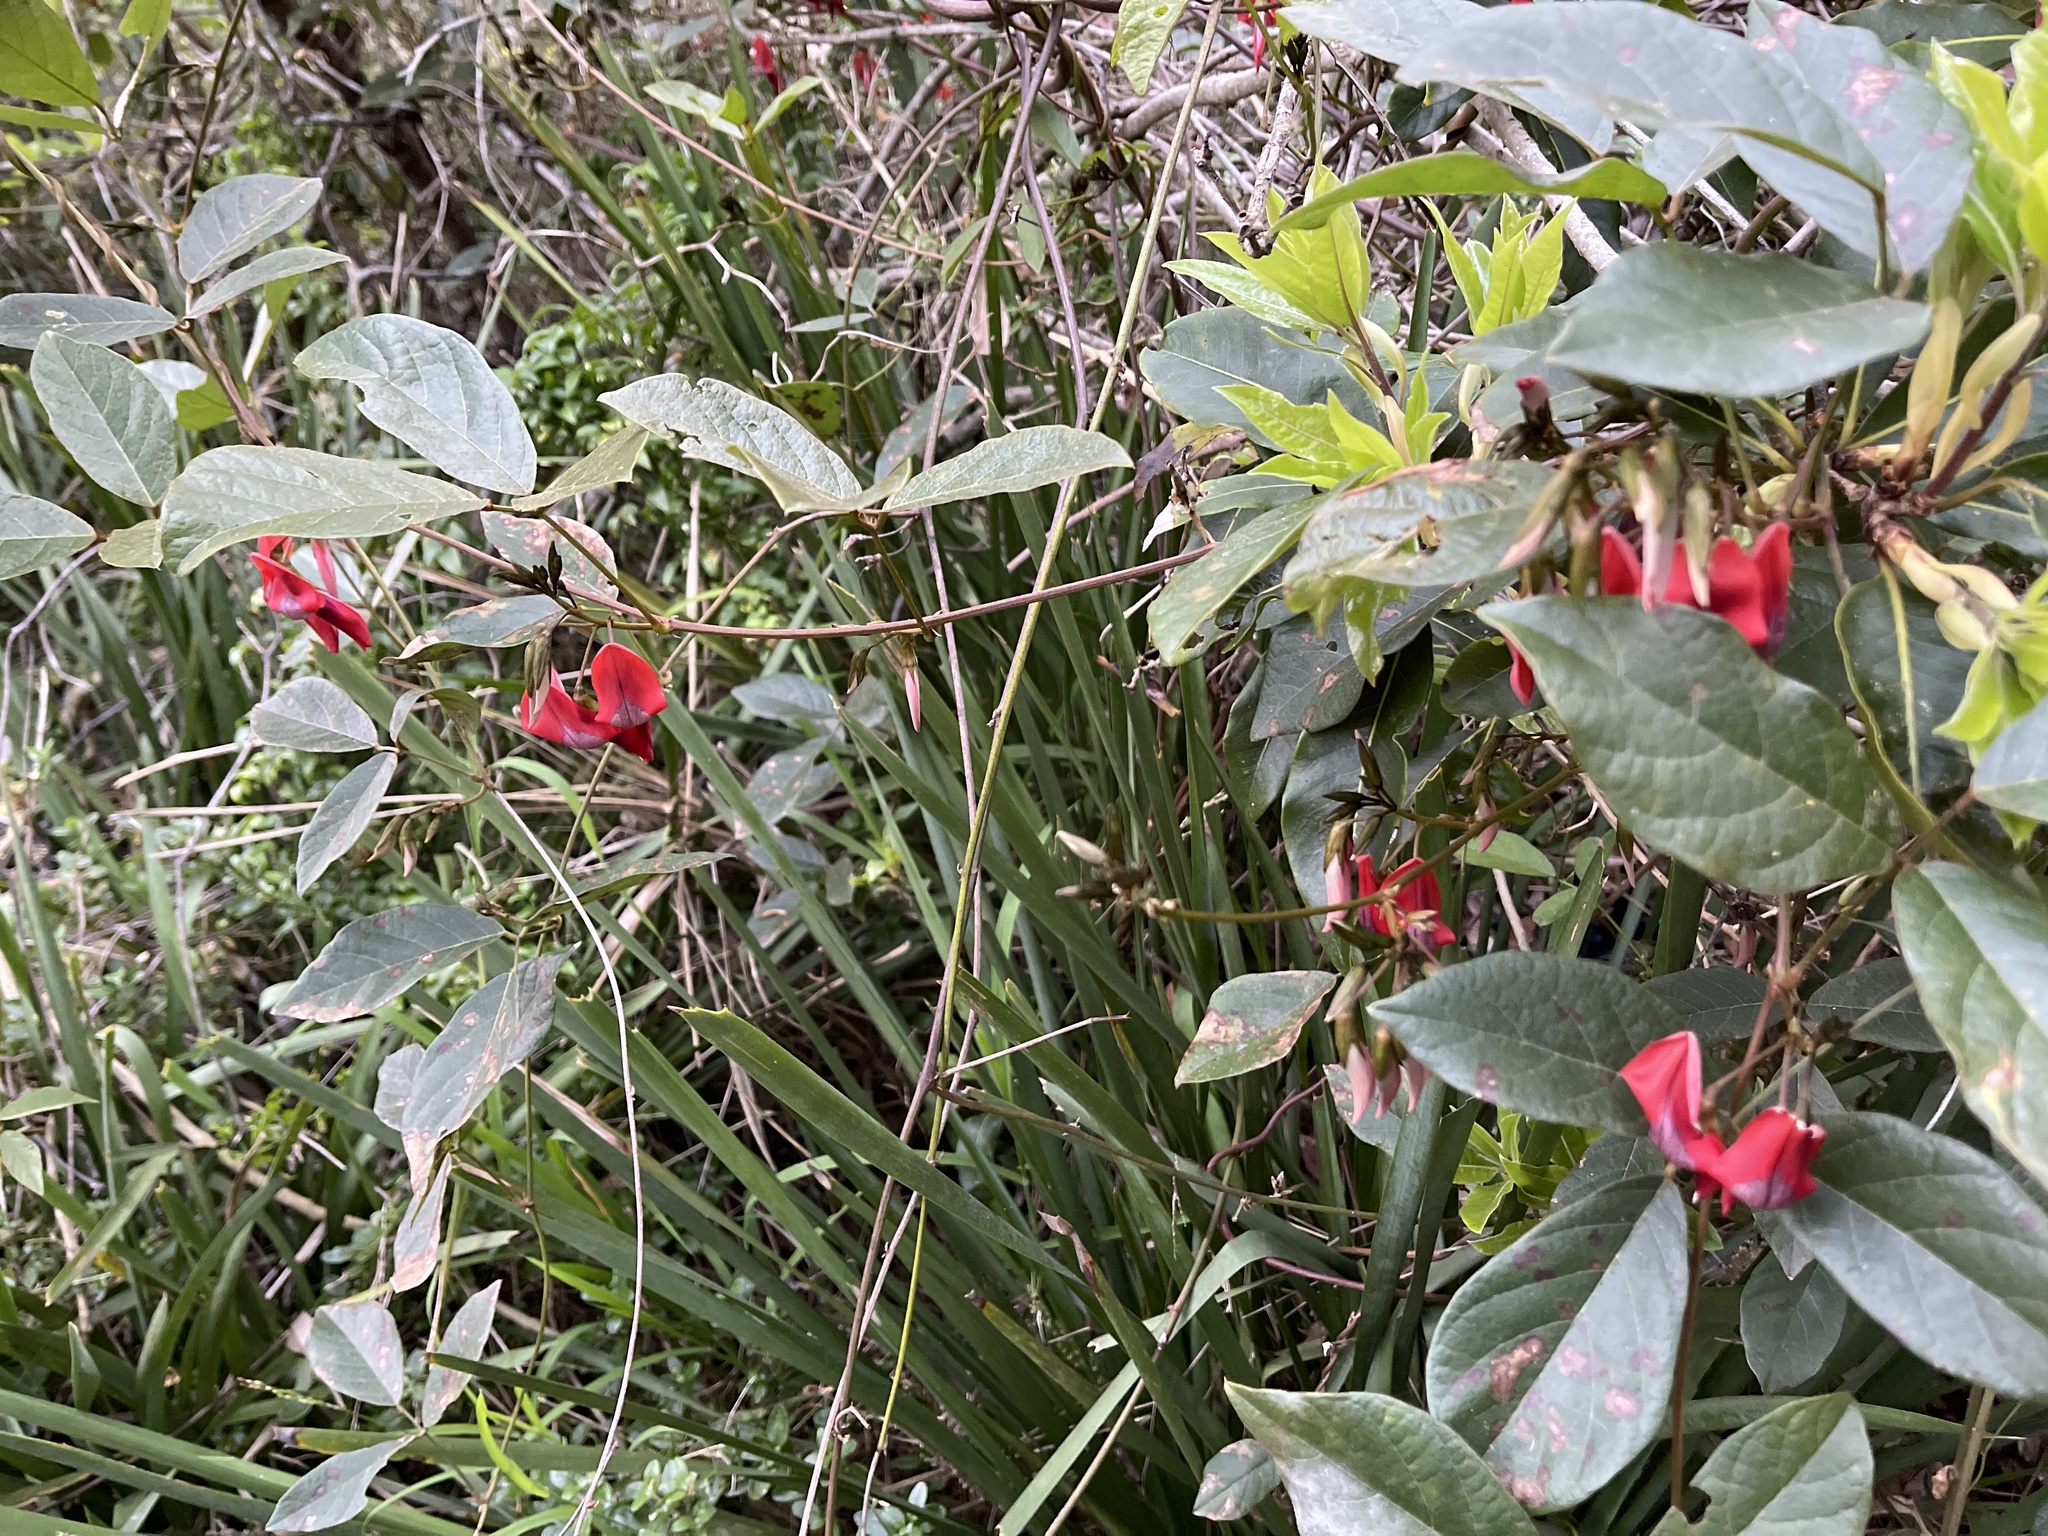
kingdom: Plantae
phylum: Tracheophyta
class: Magnoliopsida
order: Fabales
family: Fabaceae
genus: Kennedia
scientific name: Kennedia rubicunda
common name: Red kennedy-pea
